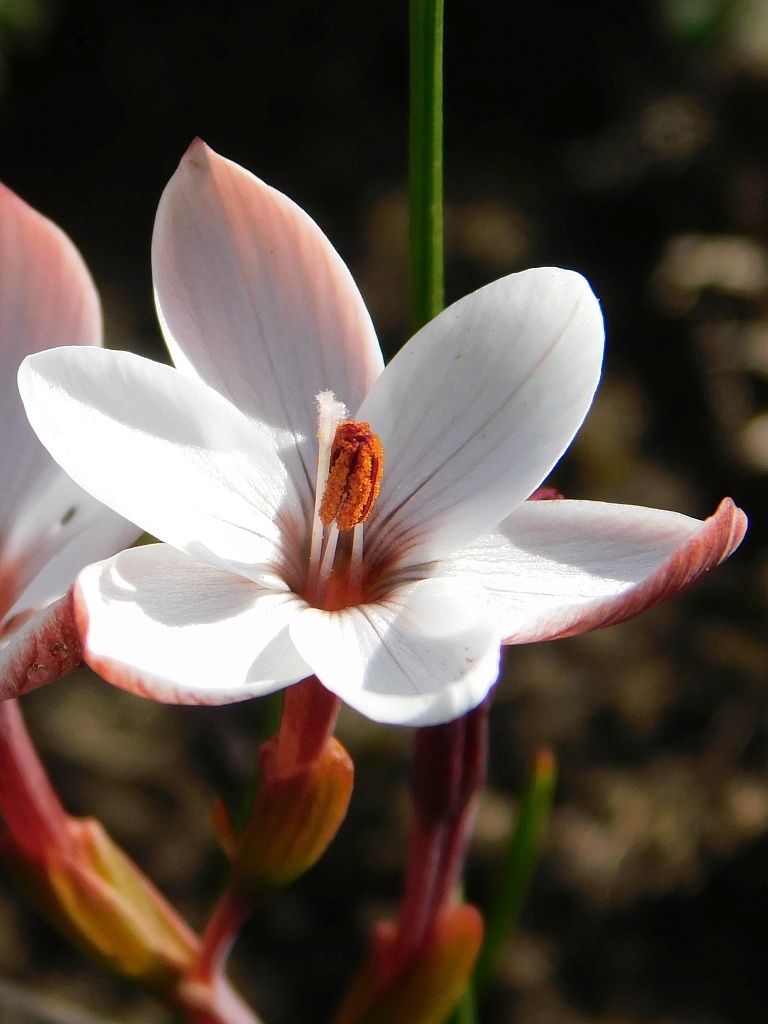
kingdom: Plantae
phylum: Tracheophyta
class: Liliopsida
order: Asparagales
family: Iridaceae
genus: Geissorhiza
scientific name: Geissorhiza ovata
